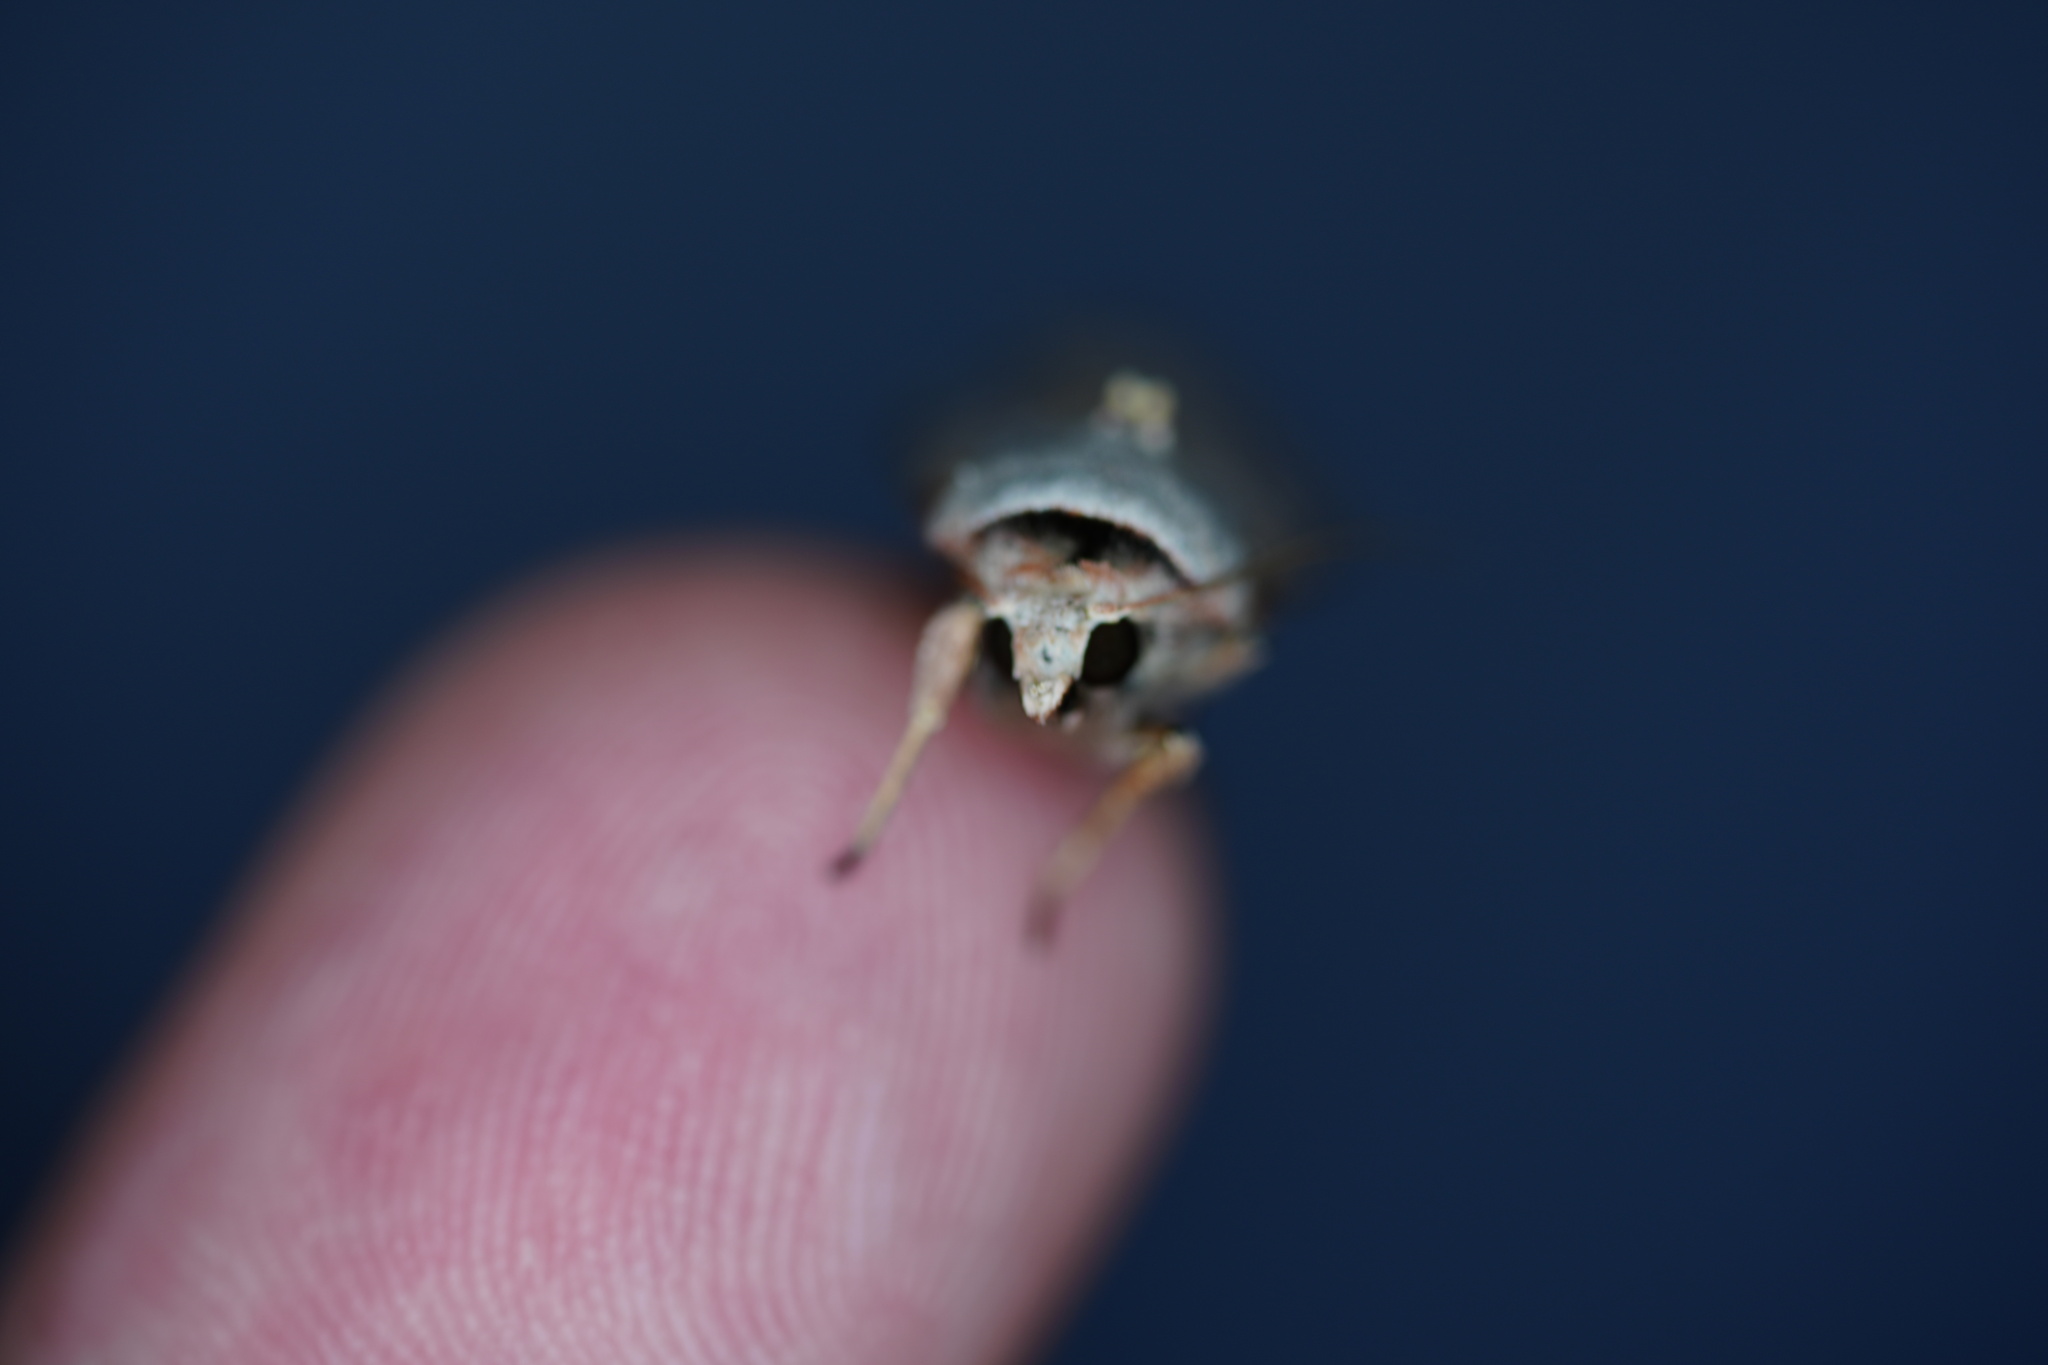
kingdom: Animalia
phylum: Arthropoda
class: Insecta
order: Lepidoptera
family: Noctuidae
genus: Anicla
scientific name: Anicla infecta
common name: Green cutworm
